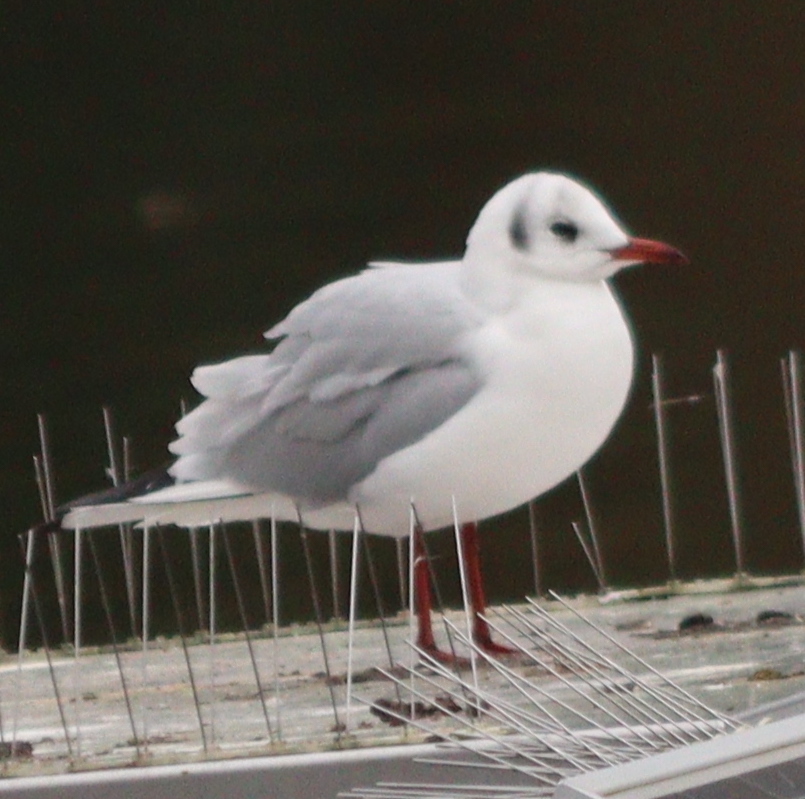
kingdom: Animalia
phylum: Chordata
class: Aves
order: Charadriiformes
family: Laridae
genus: Chroicocephalus
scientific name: Chroicocephalus ridibundus
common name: Black-headed gull
